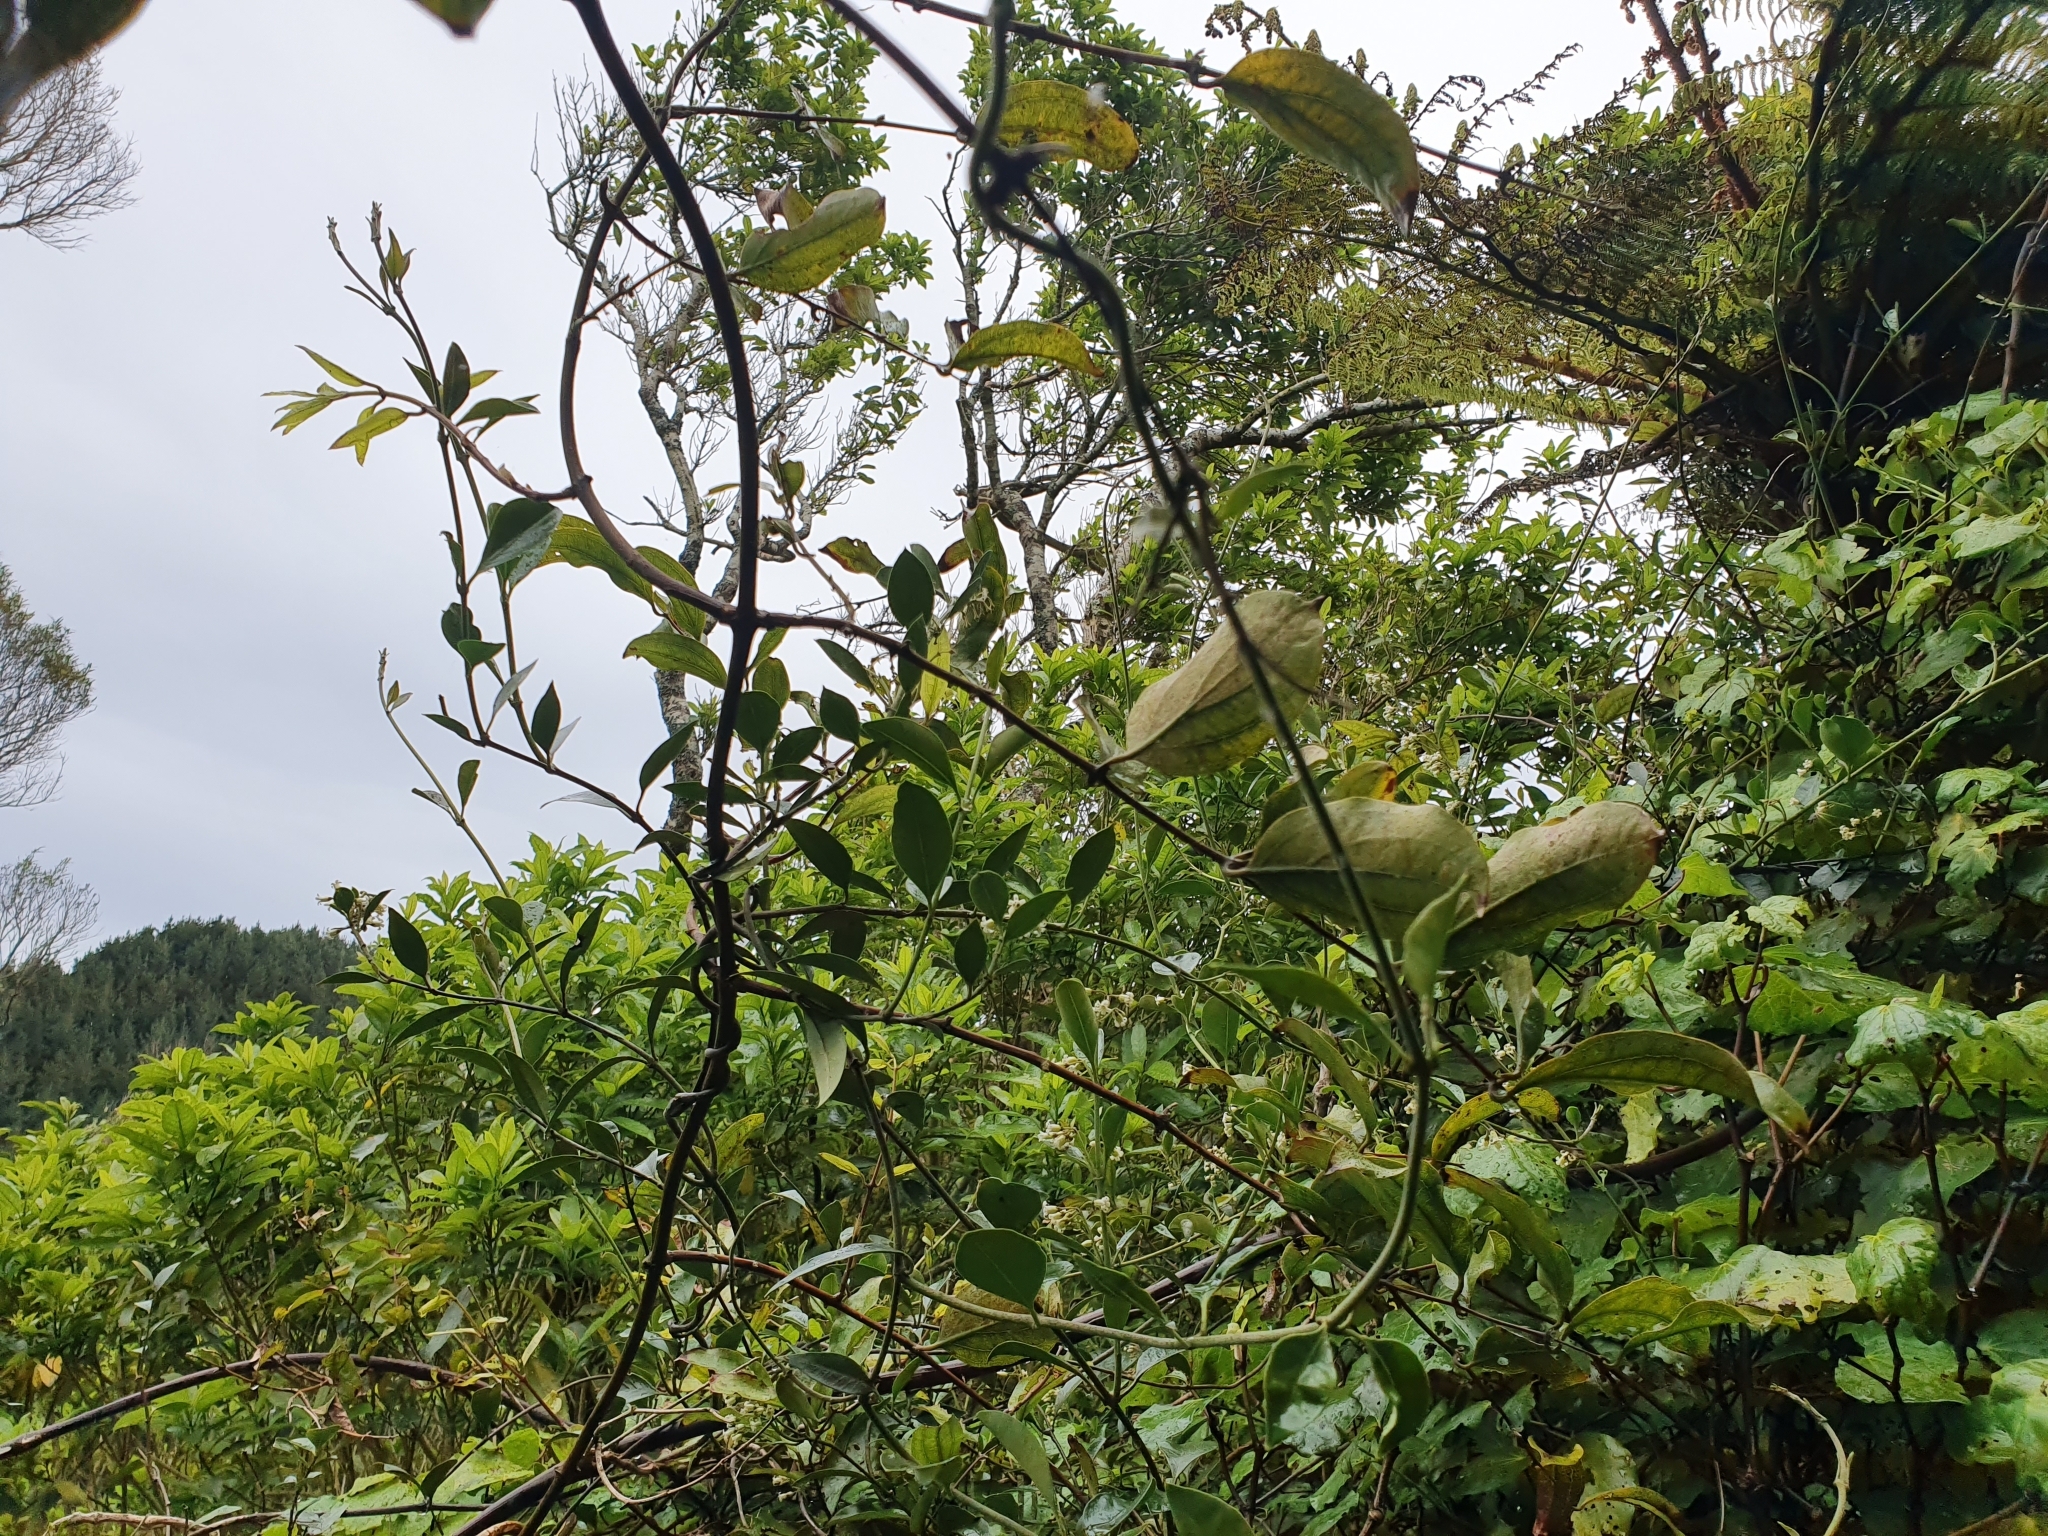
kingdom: Plantae
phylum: Tracheophyta
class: Magnoliopsida
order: Gentianales
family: Apocynaceae
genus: Parsonsia
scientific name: Parsonsia heterophylla
